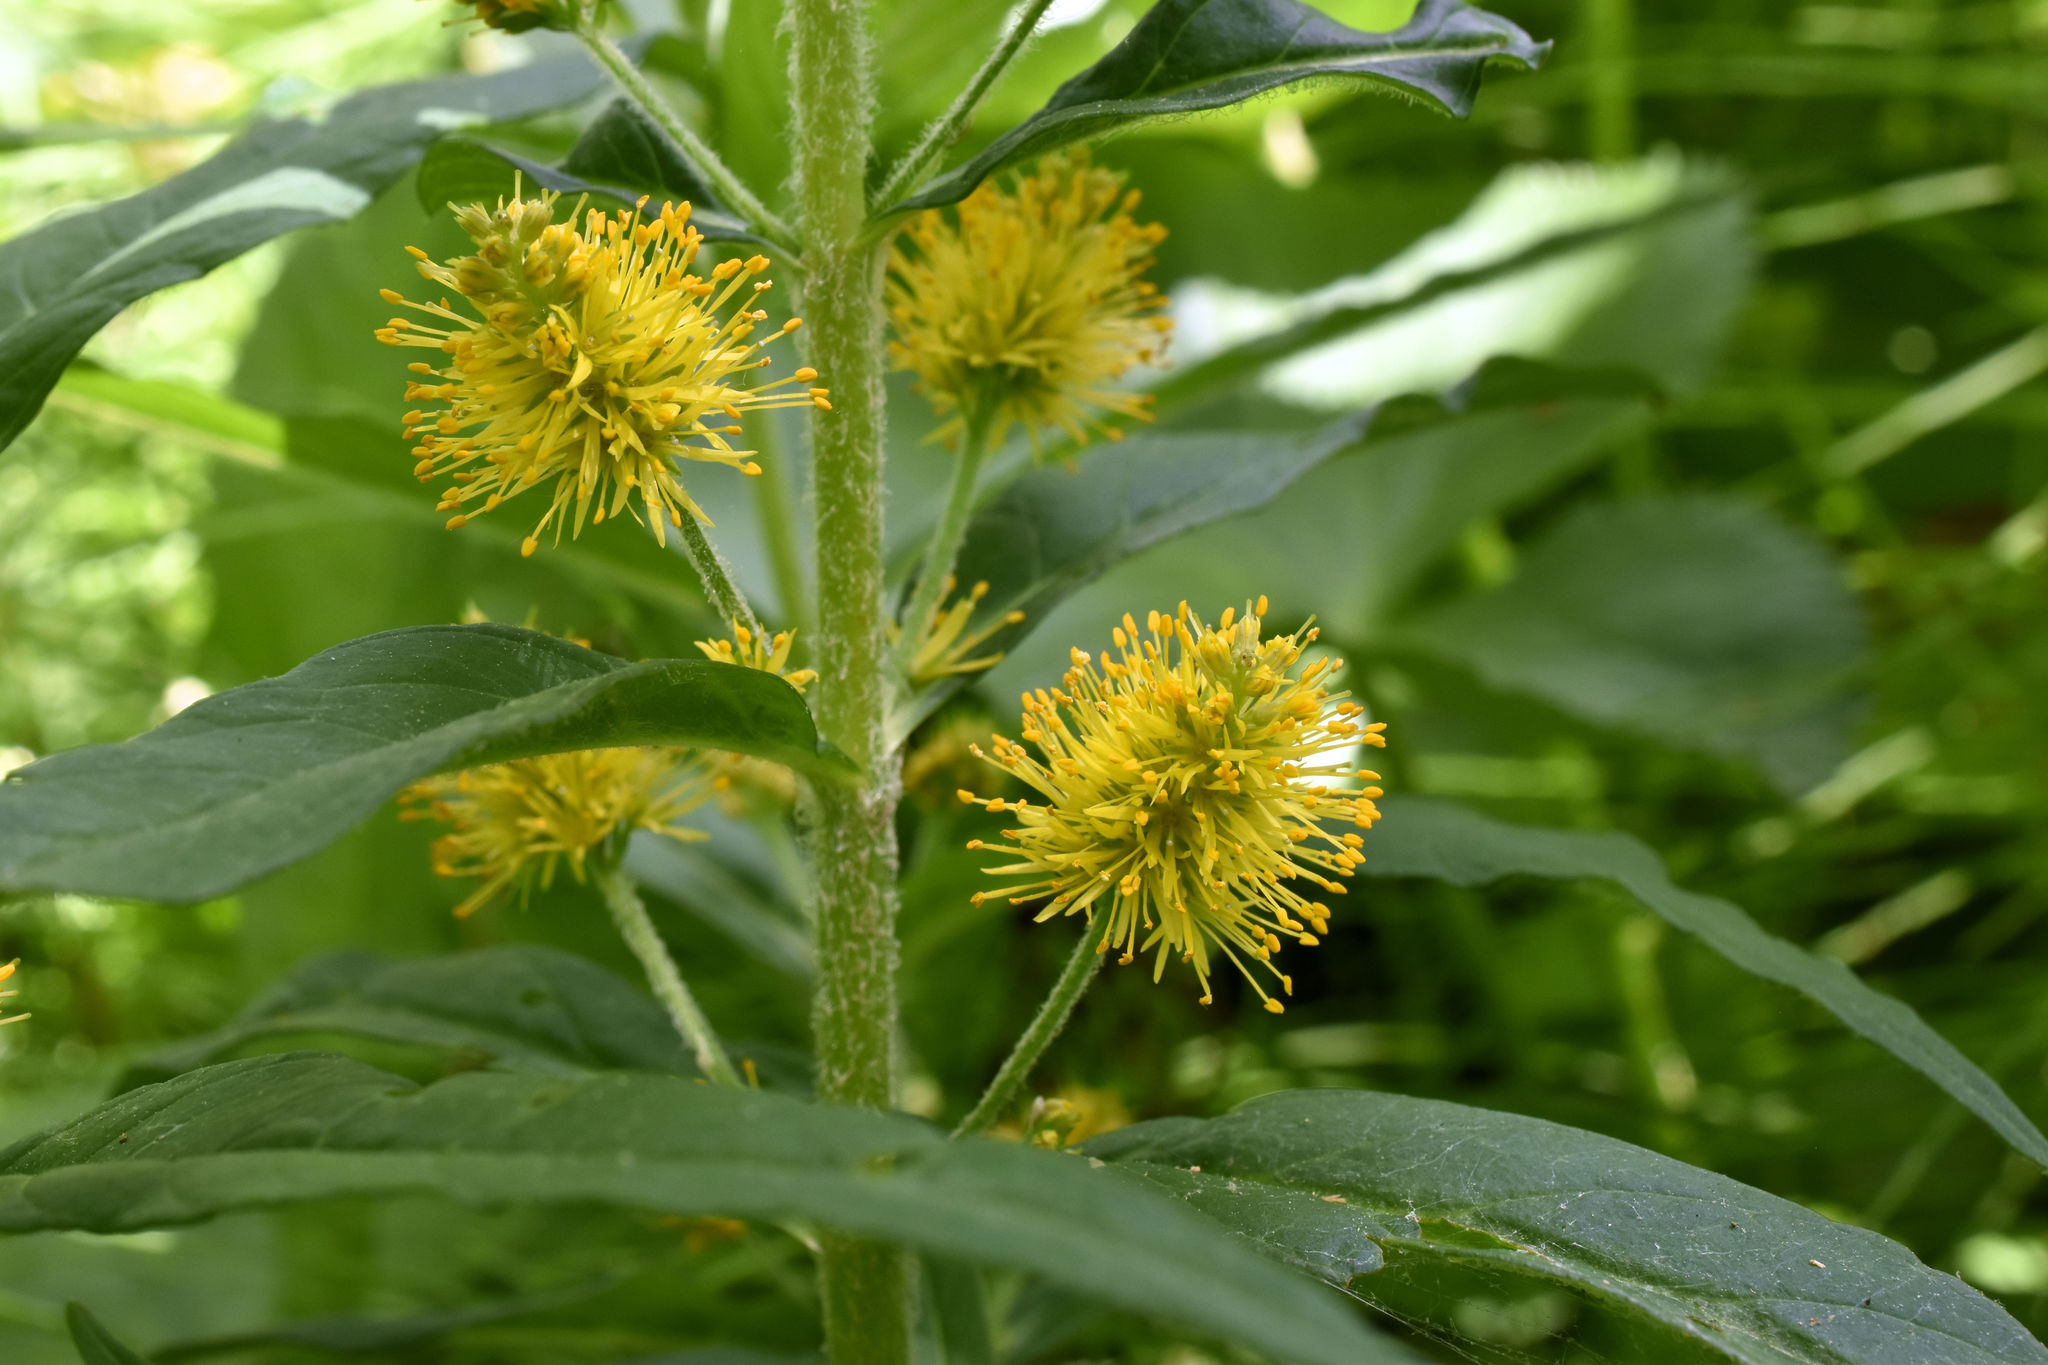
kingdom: Plantae
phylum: Tracheophyta
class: Magnoliopsida
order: Ericales
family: Primulaceae
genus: Lysimachia
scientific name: Lysimachia thyrsiflora
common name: Tufted loosestrife
